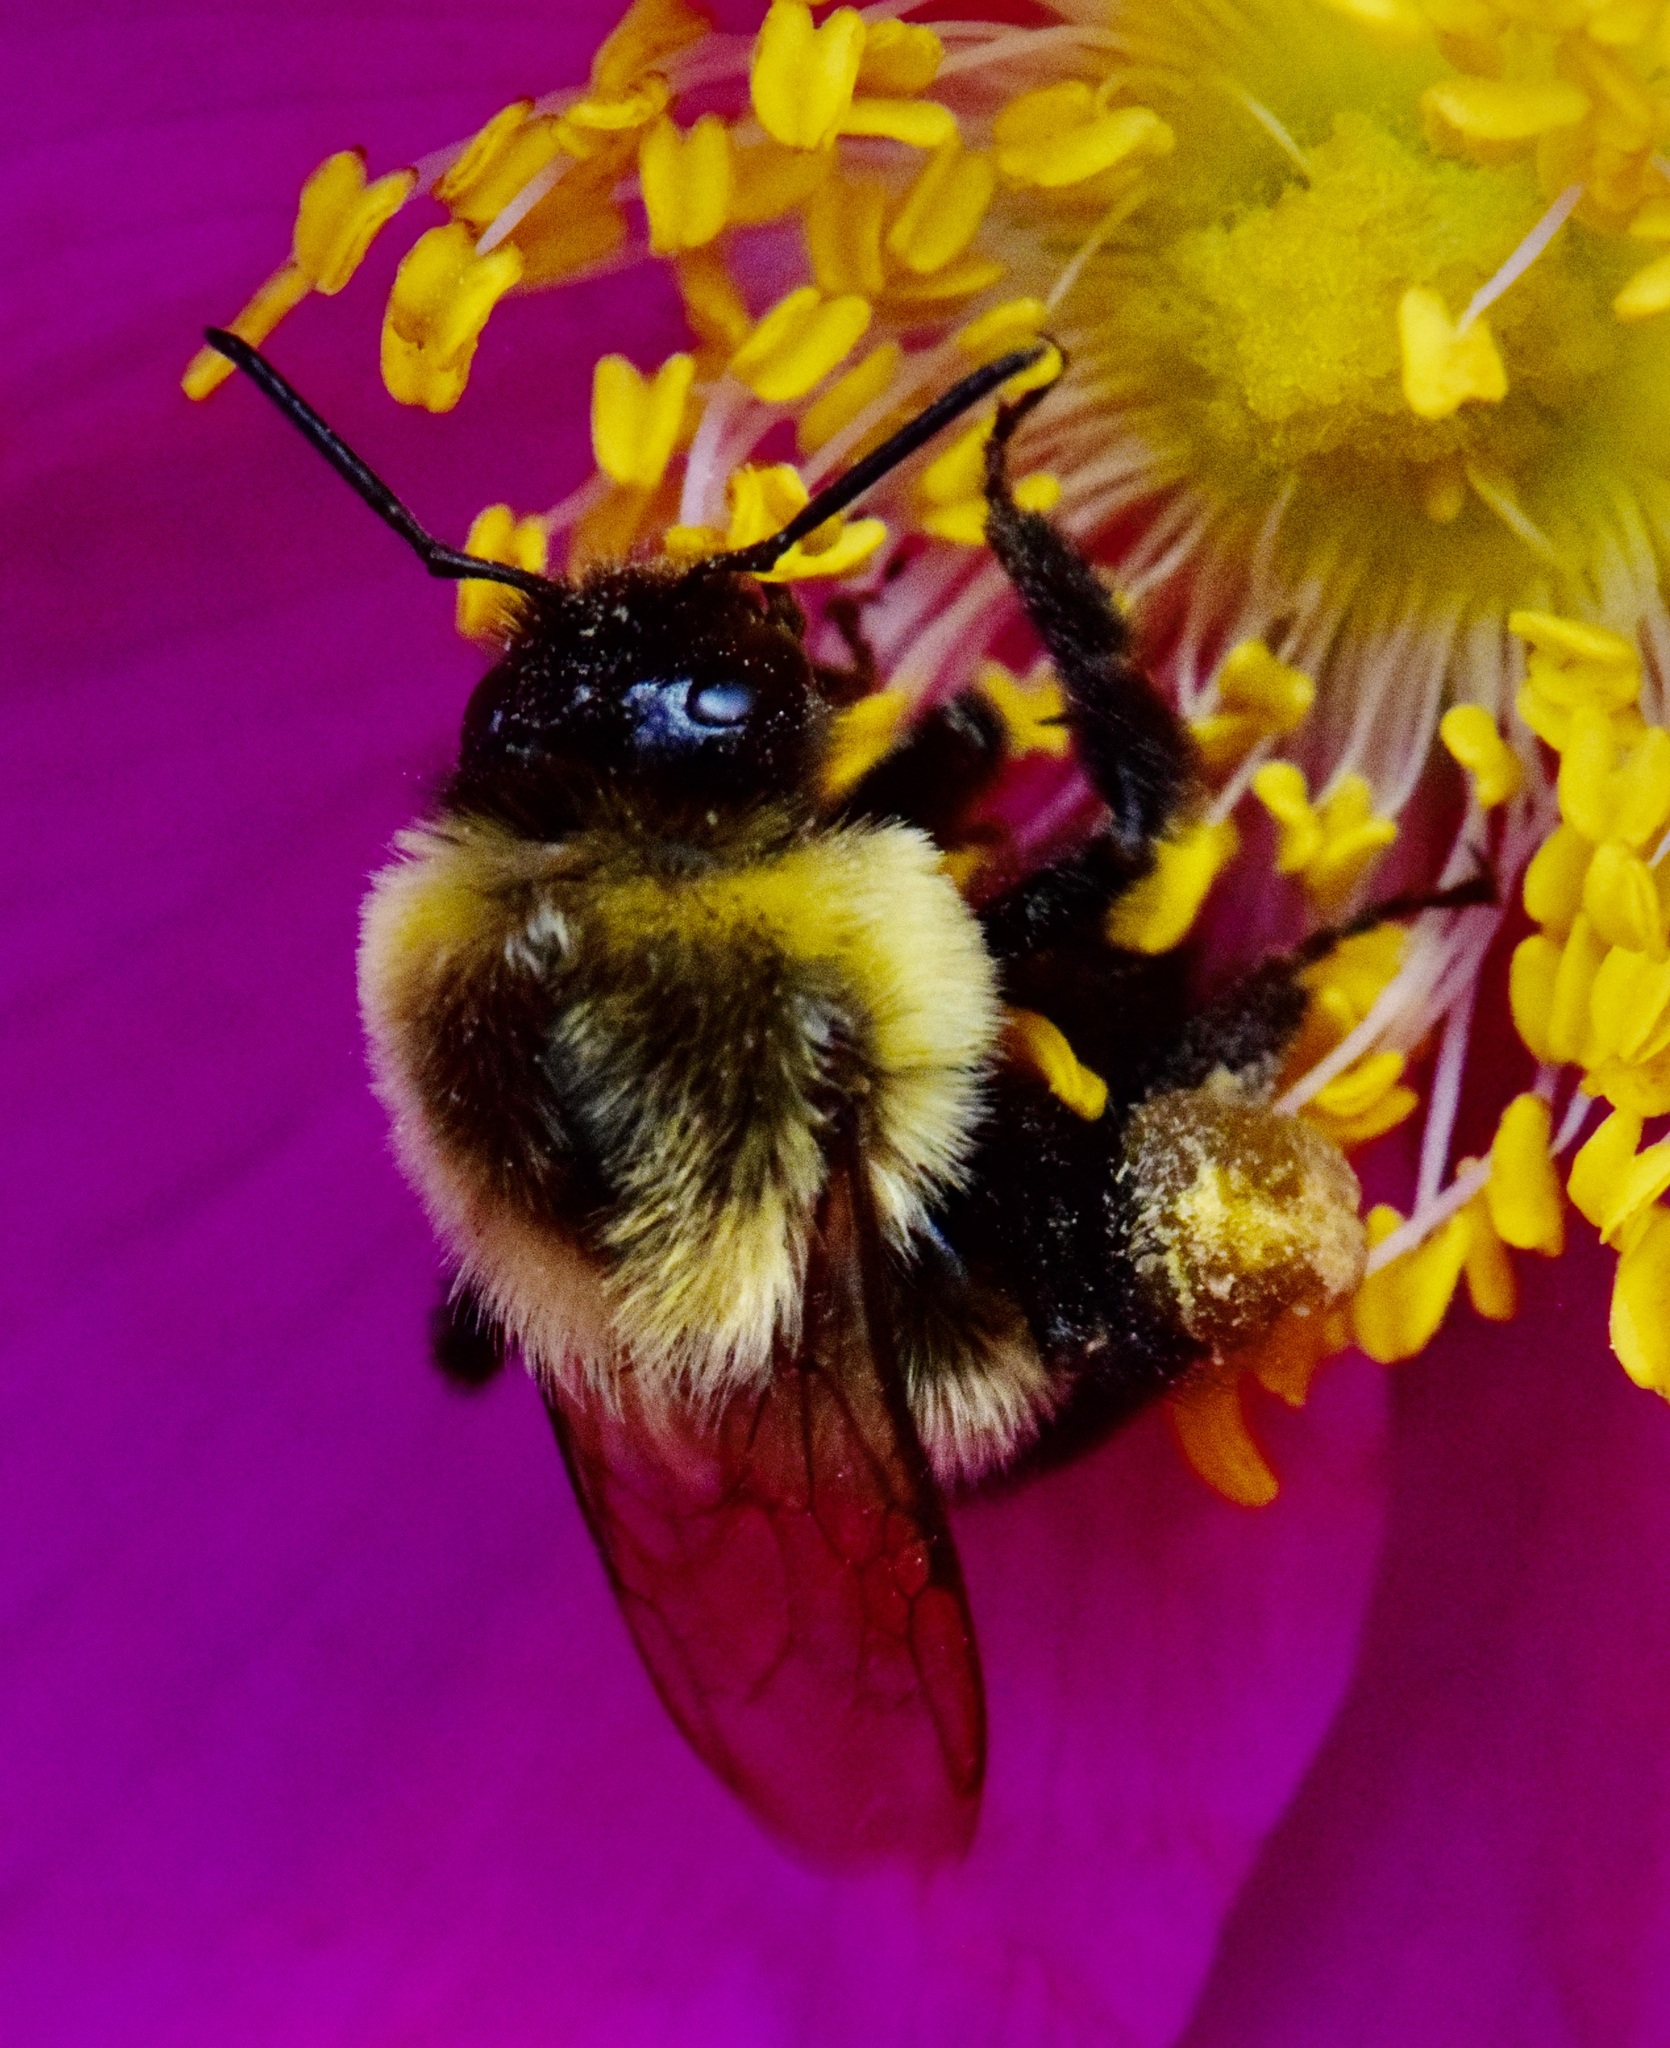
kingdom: Animalia
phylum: Arthropoda
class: Insecta
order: Hymenoptera
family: Apidae
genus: Bombus
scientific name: Bombus impatiens
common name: Common eastern bumble bee
